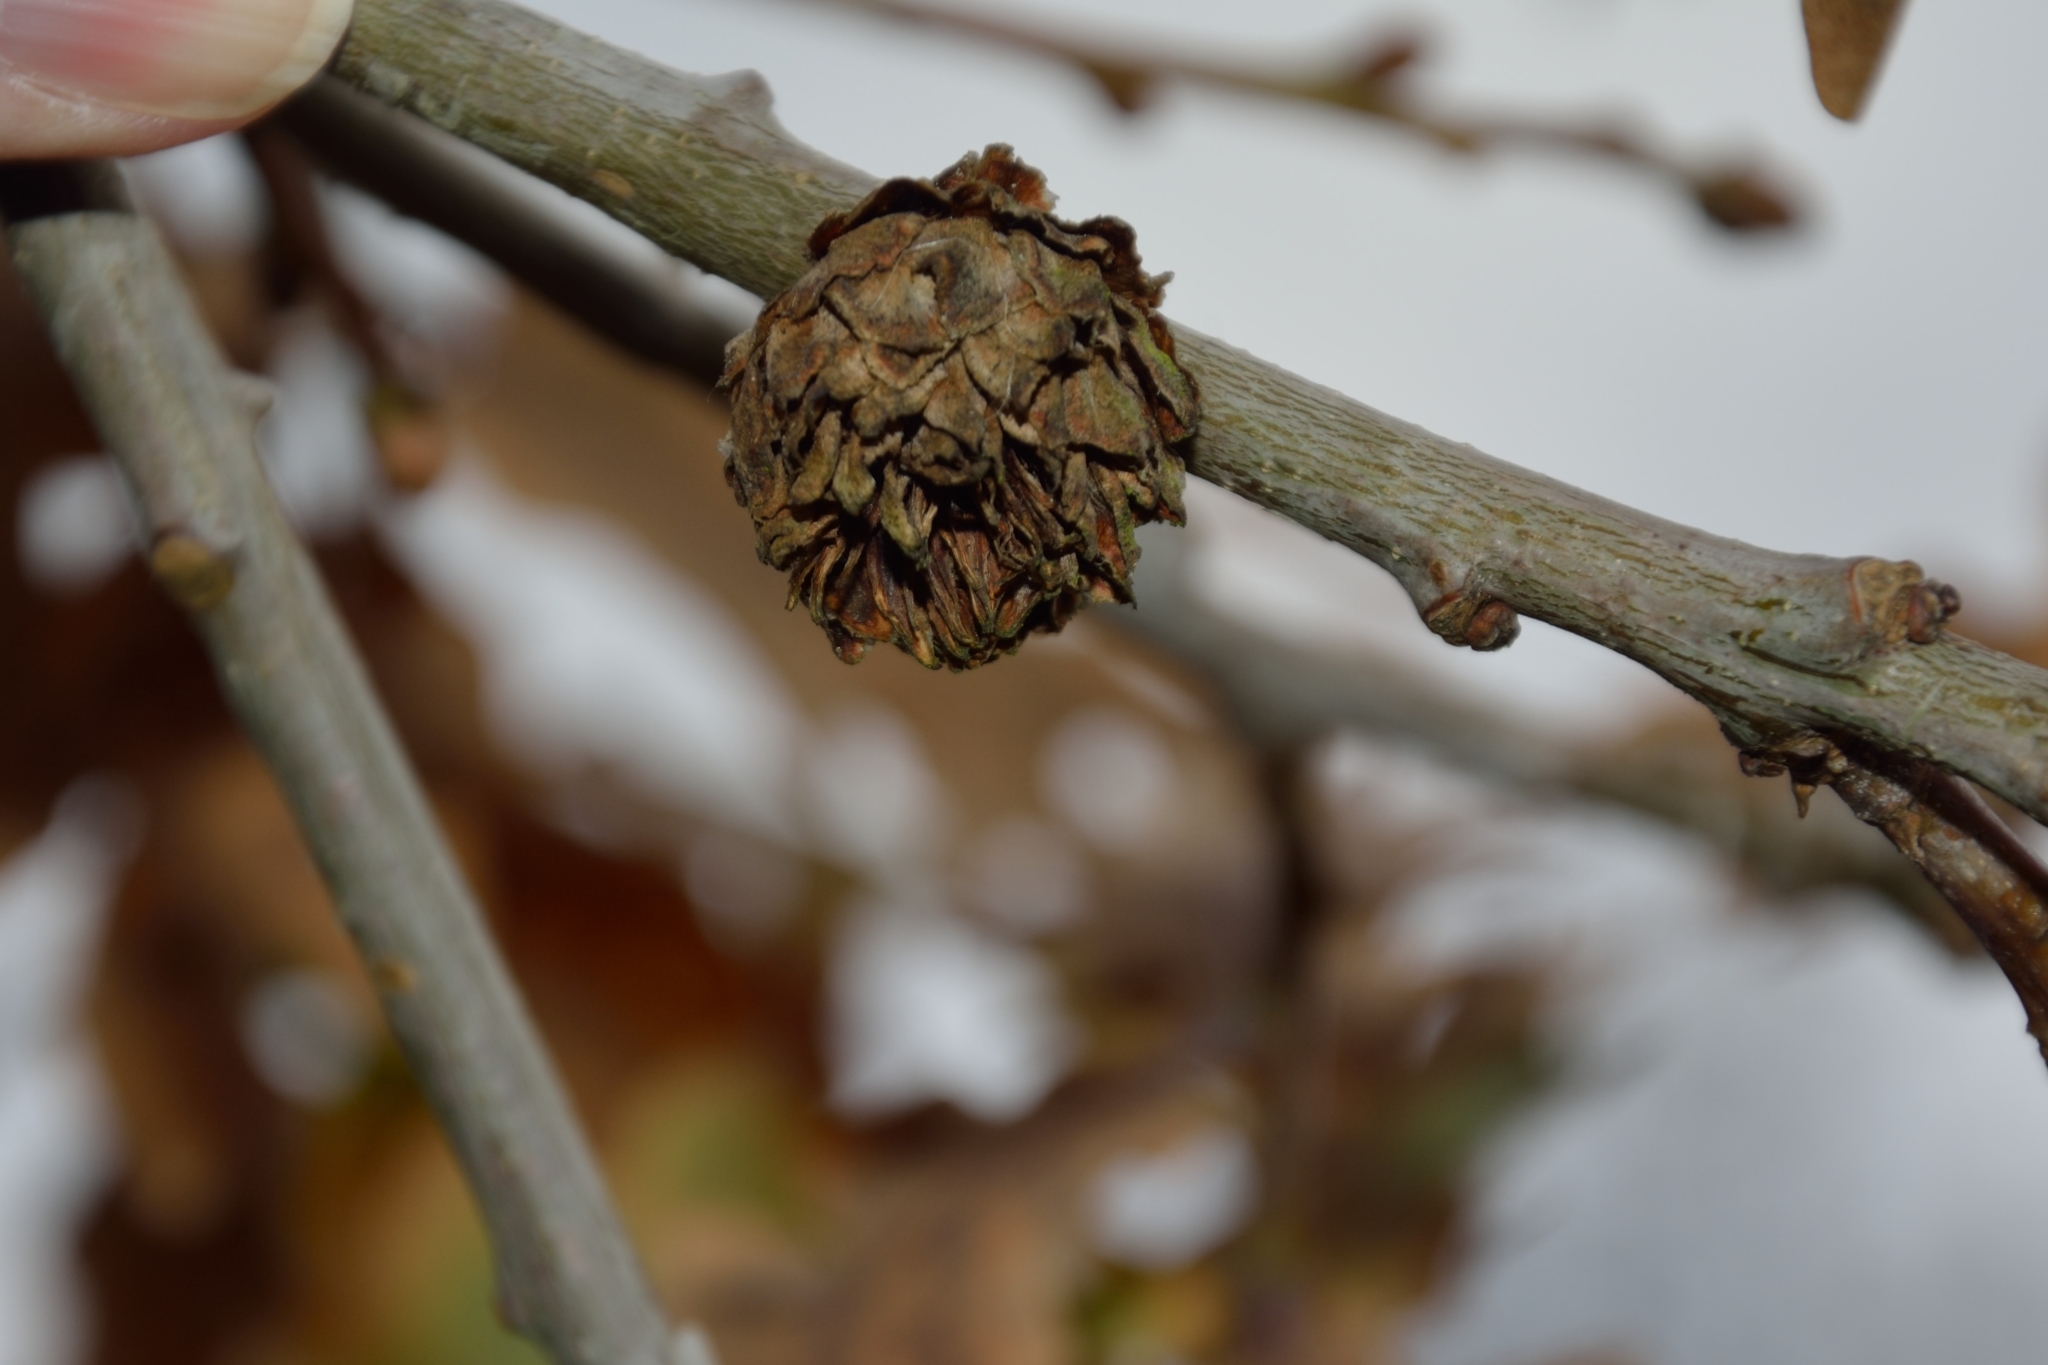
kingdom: Animalia
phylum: Arthropoda
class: Insecta
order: Hymenoptera
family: Cynipidae
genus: Andricus
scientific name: Andricus foecundatrix
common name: Artichoke gall
